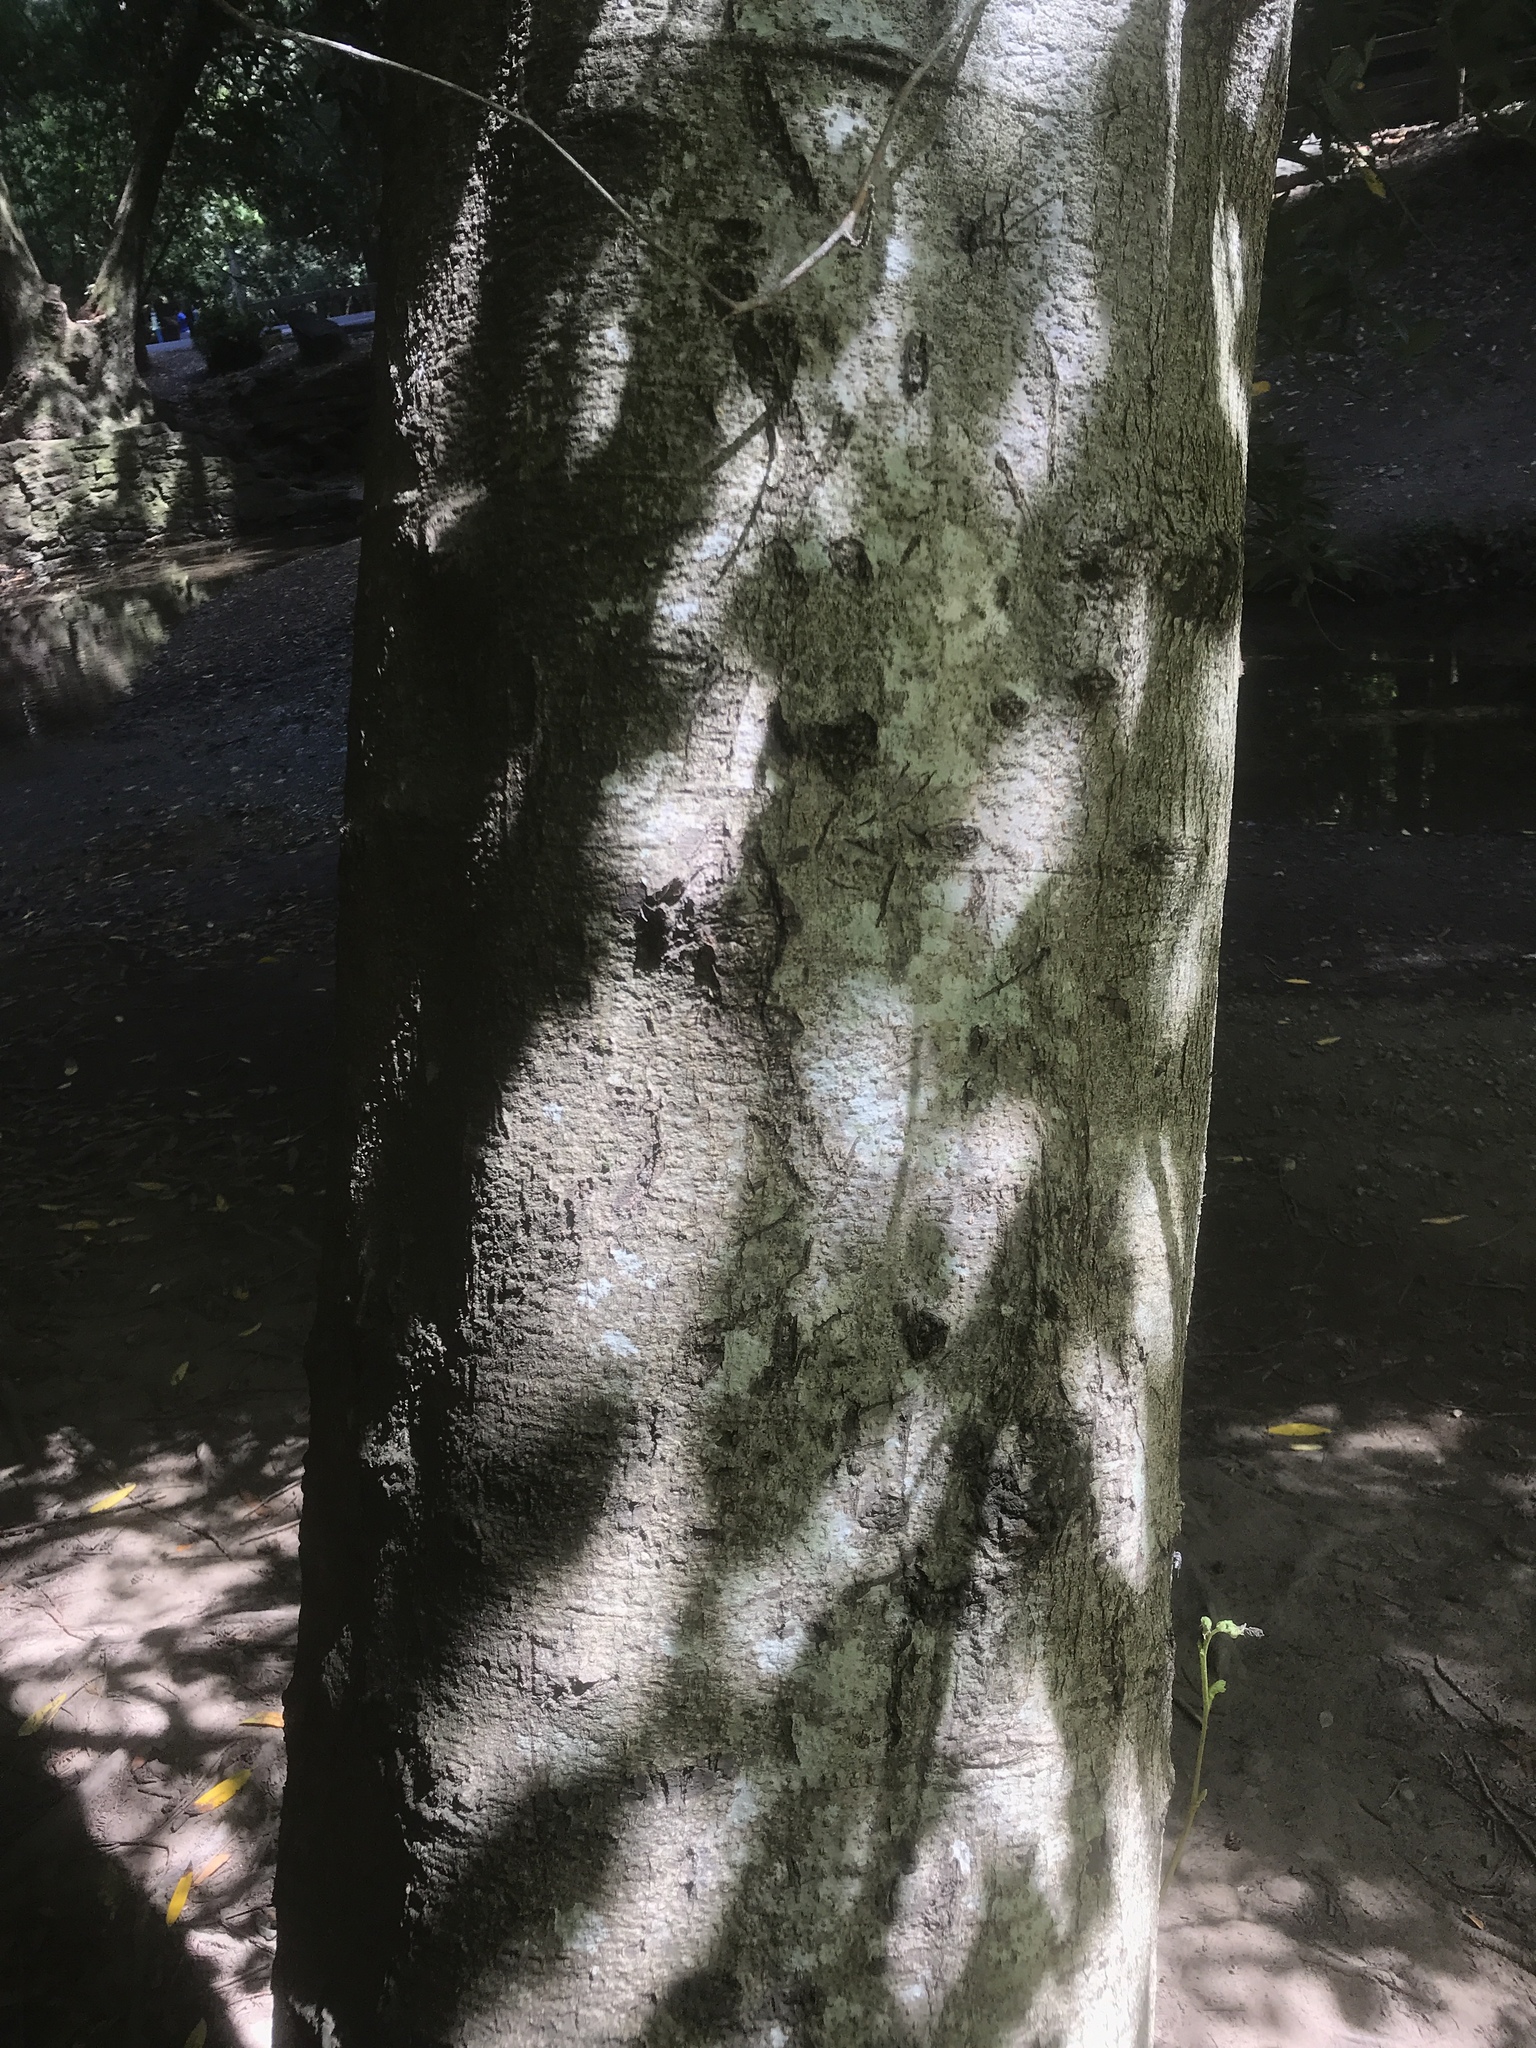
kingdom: Plantae
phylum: Tracheophyta
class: Magnoliopsida
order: Fagales
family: Betulaceae
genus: Alnus
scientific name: Alnus rubra
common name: Red alder
